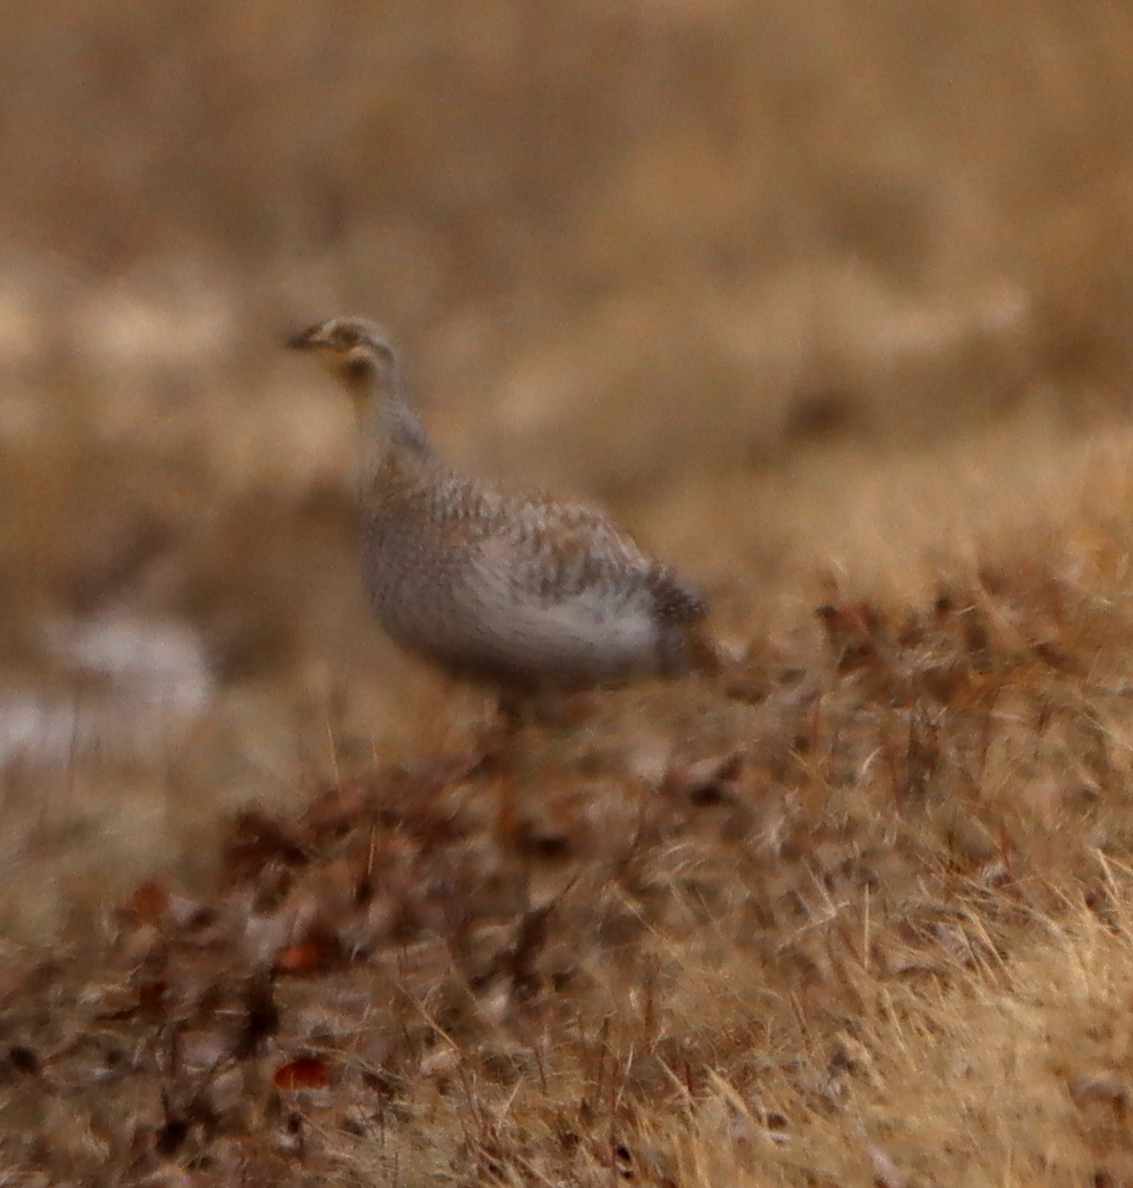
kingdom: Animalia
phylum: Chordata
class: Aves
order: Galliformes
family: Phasianidae
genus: Tympanuchus
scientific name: Tympanuchus phasianellus
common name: Sharp-tailed grouse
